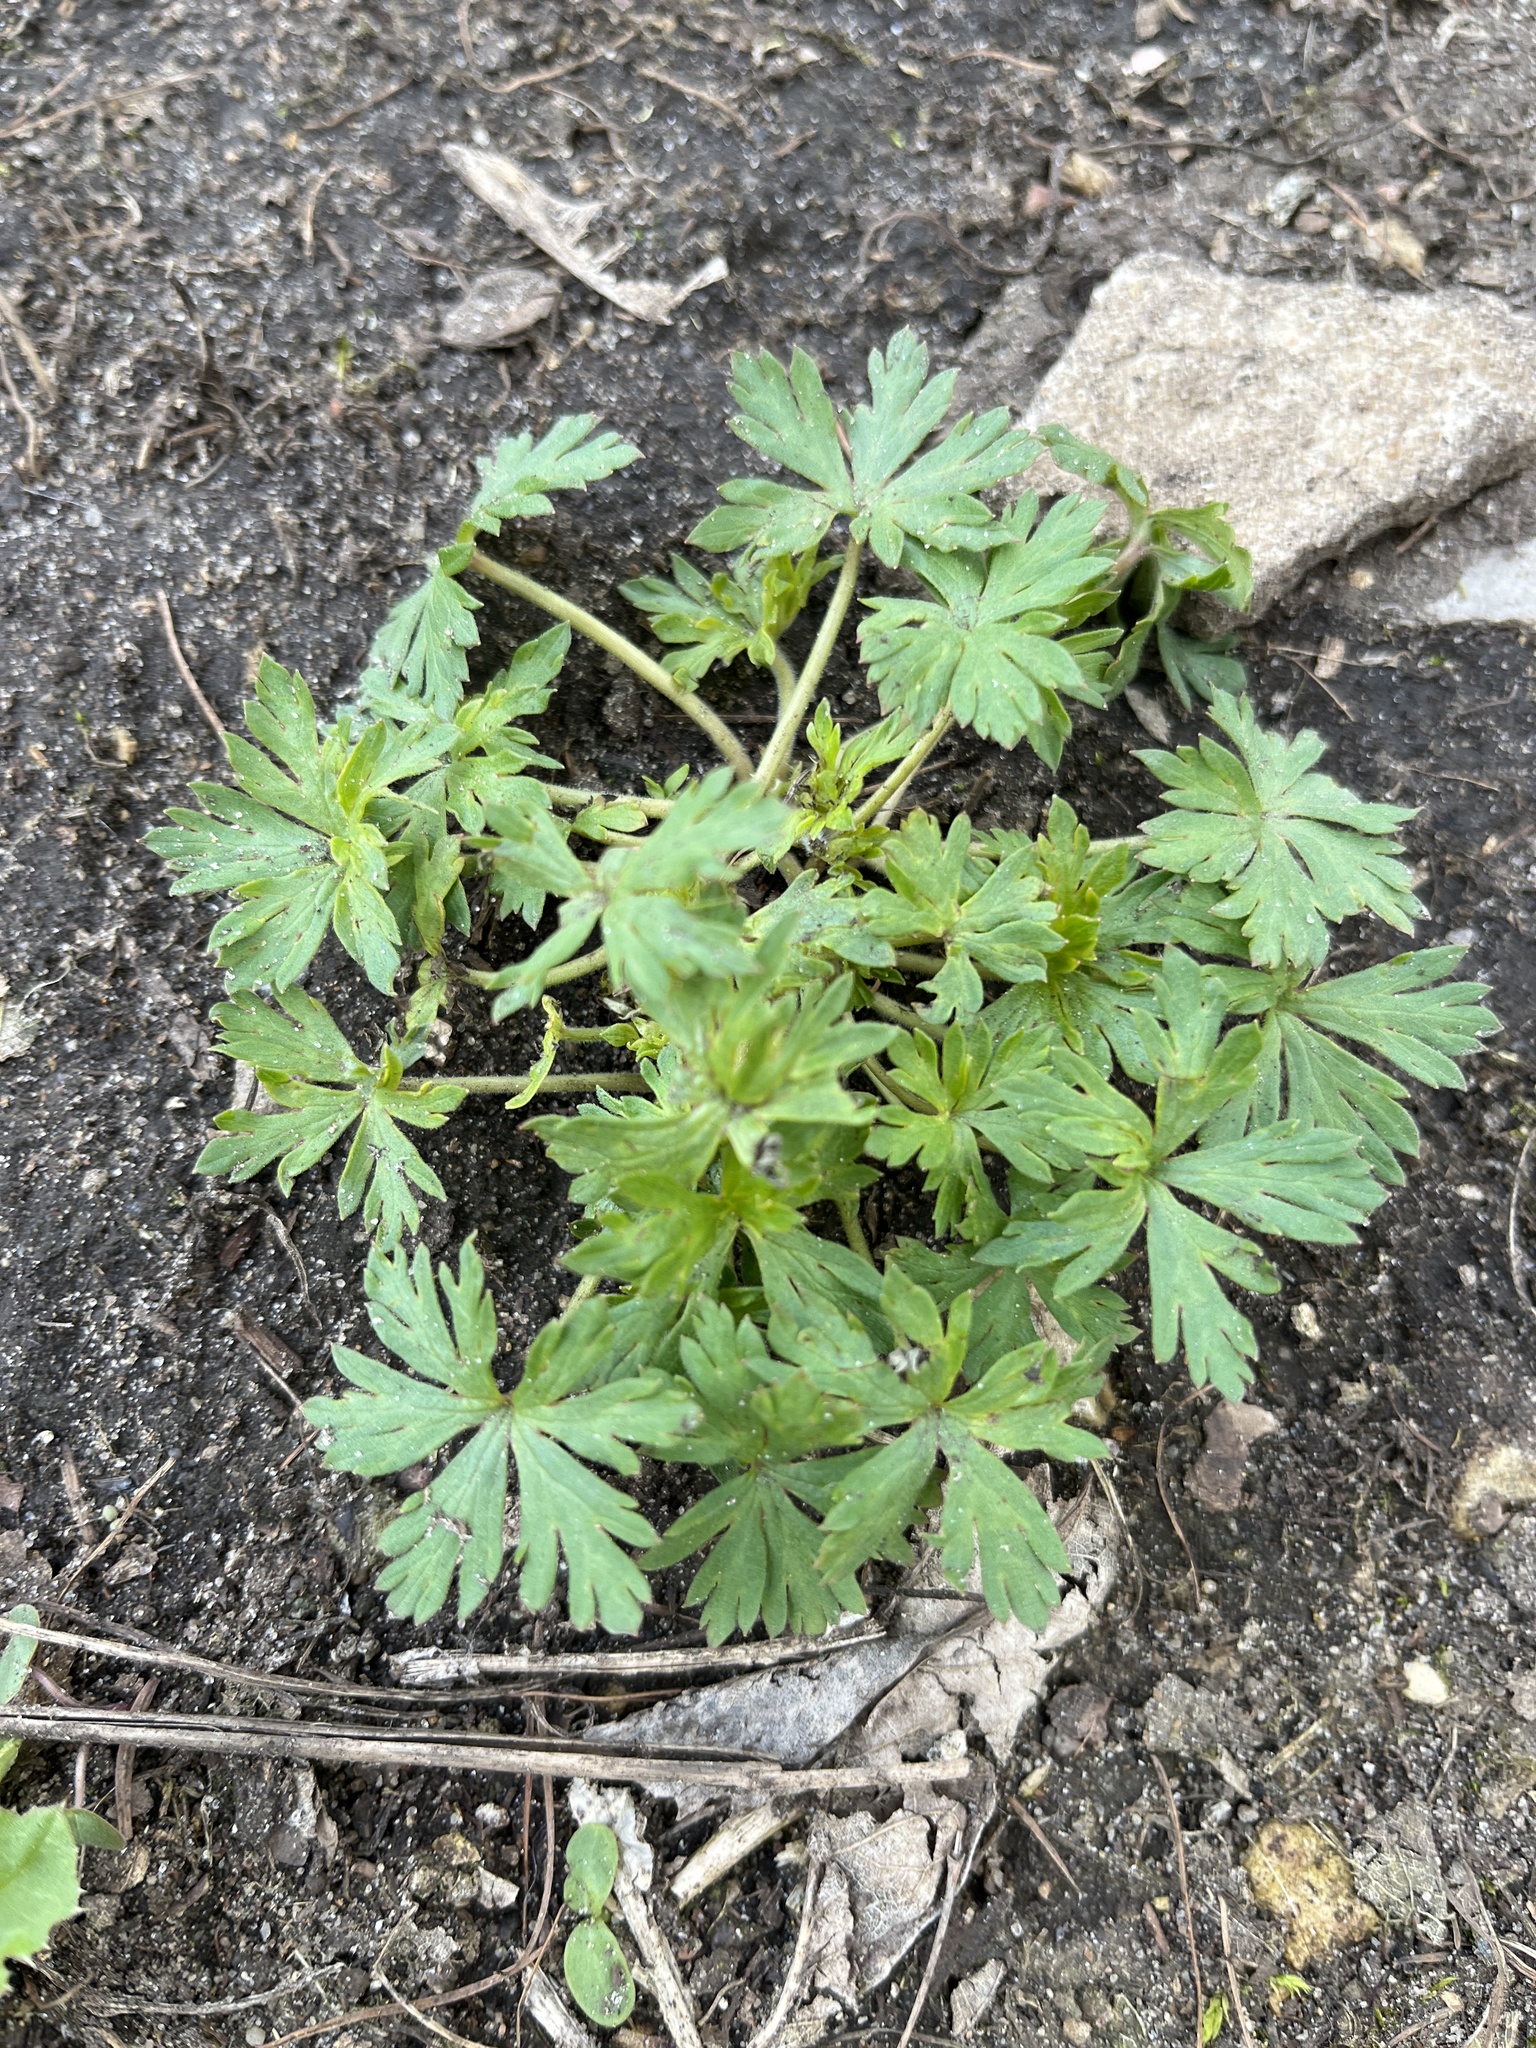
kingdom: Plantae
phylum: Tracheophyta
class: Magnoliopsida
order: Geraniales
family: Geraniaceae
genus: Geranium
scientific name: Geranium sibiricum
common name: Siberian crane's-bill
